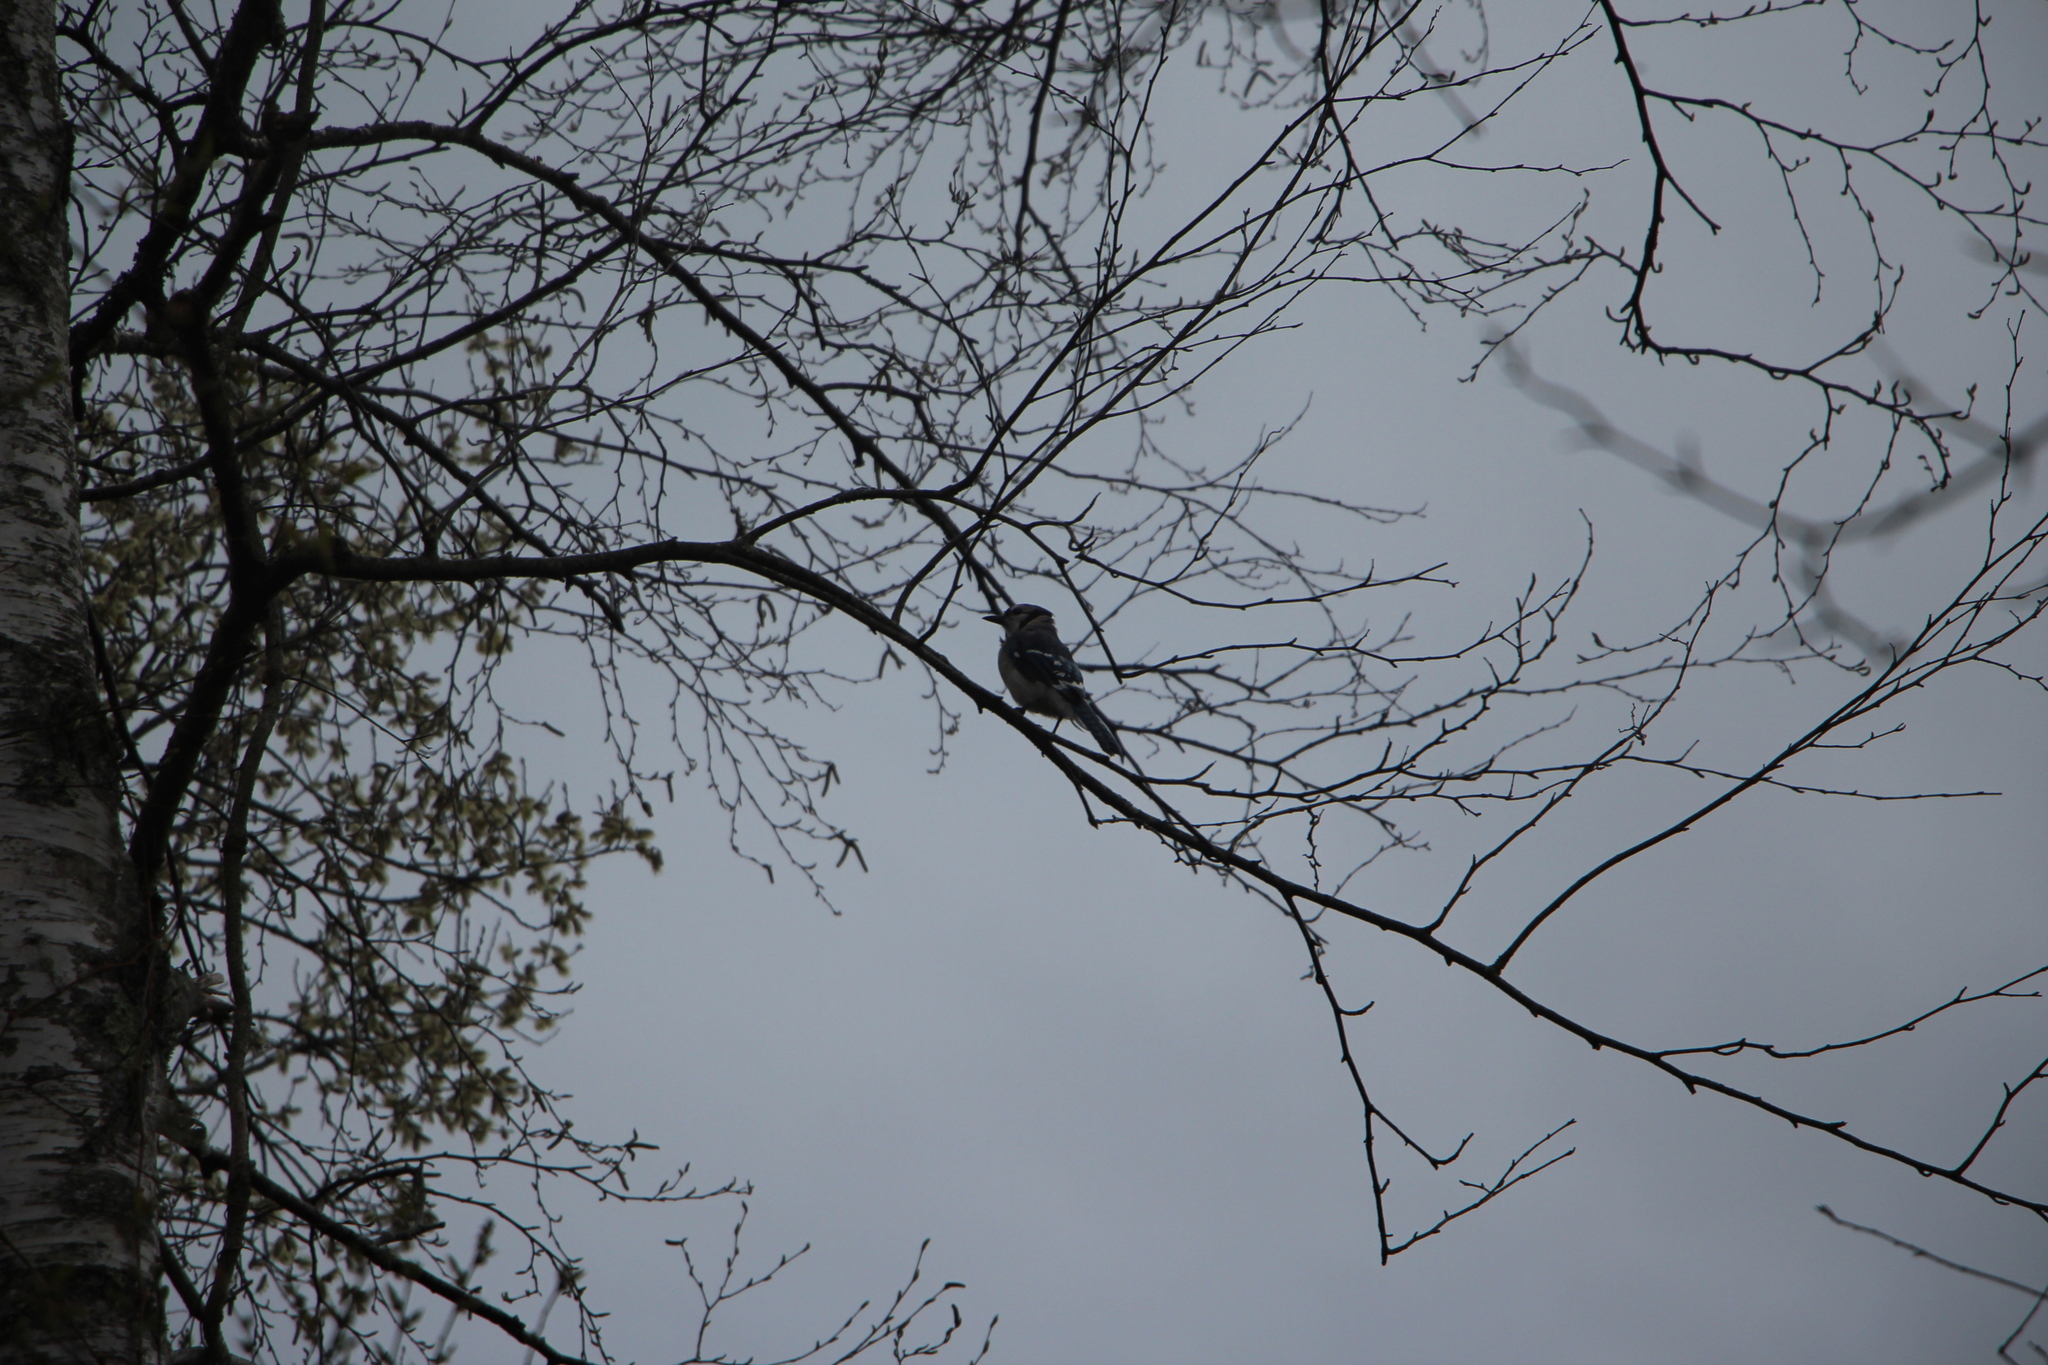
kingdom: Animalia
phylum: Chordata
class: Aves
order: Passeriformes
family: Corvidae
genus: Cyanocitta
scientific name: Cyanocitta cristata
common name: Blue jay
